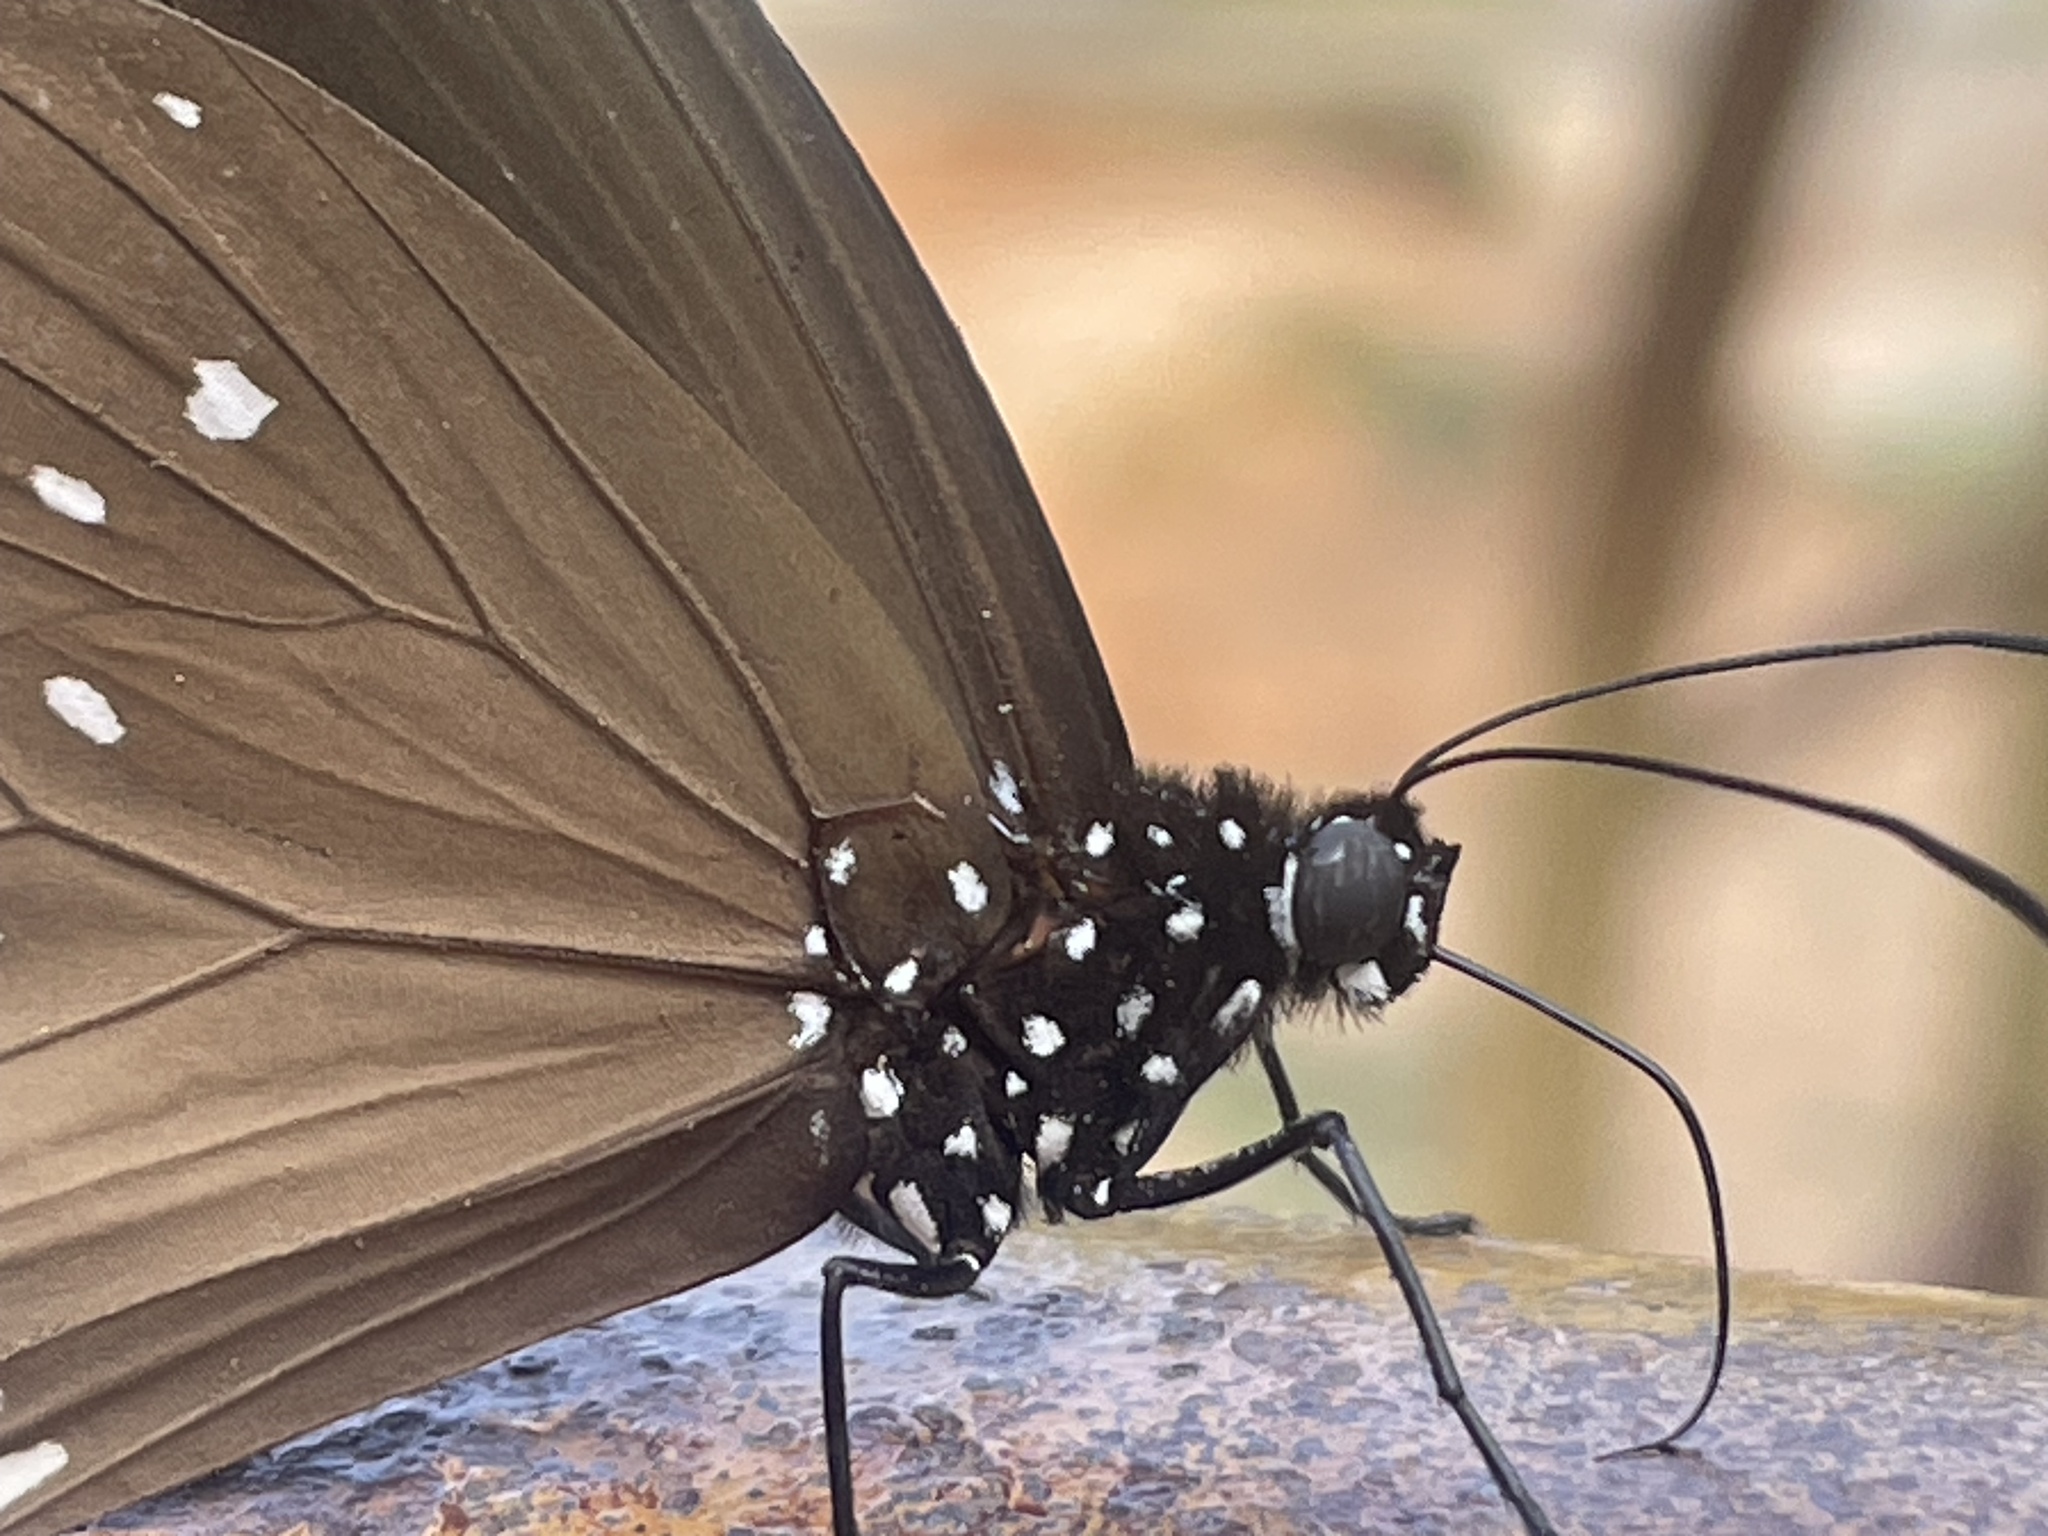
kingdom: Animalia
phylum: Arthropoda
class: Insecta
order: Lepidoptera
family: Nymphalidae
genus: Euploea
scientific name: Euploea core
